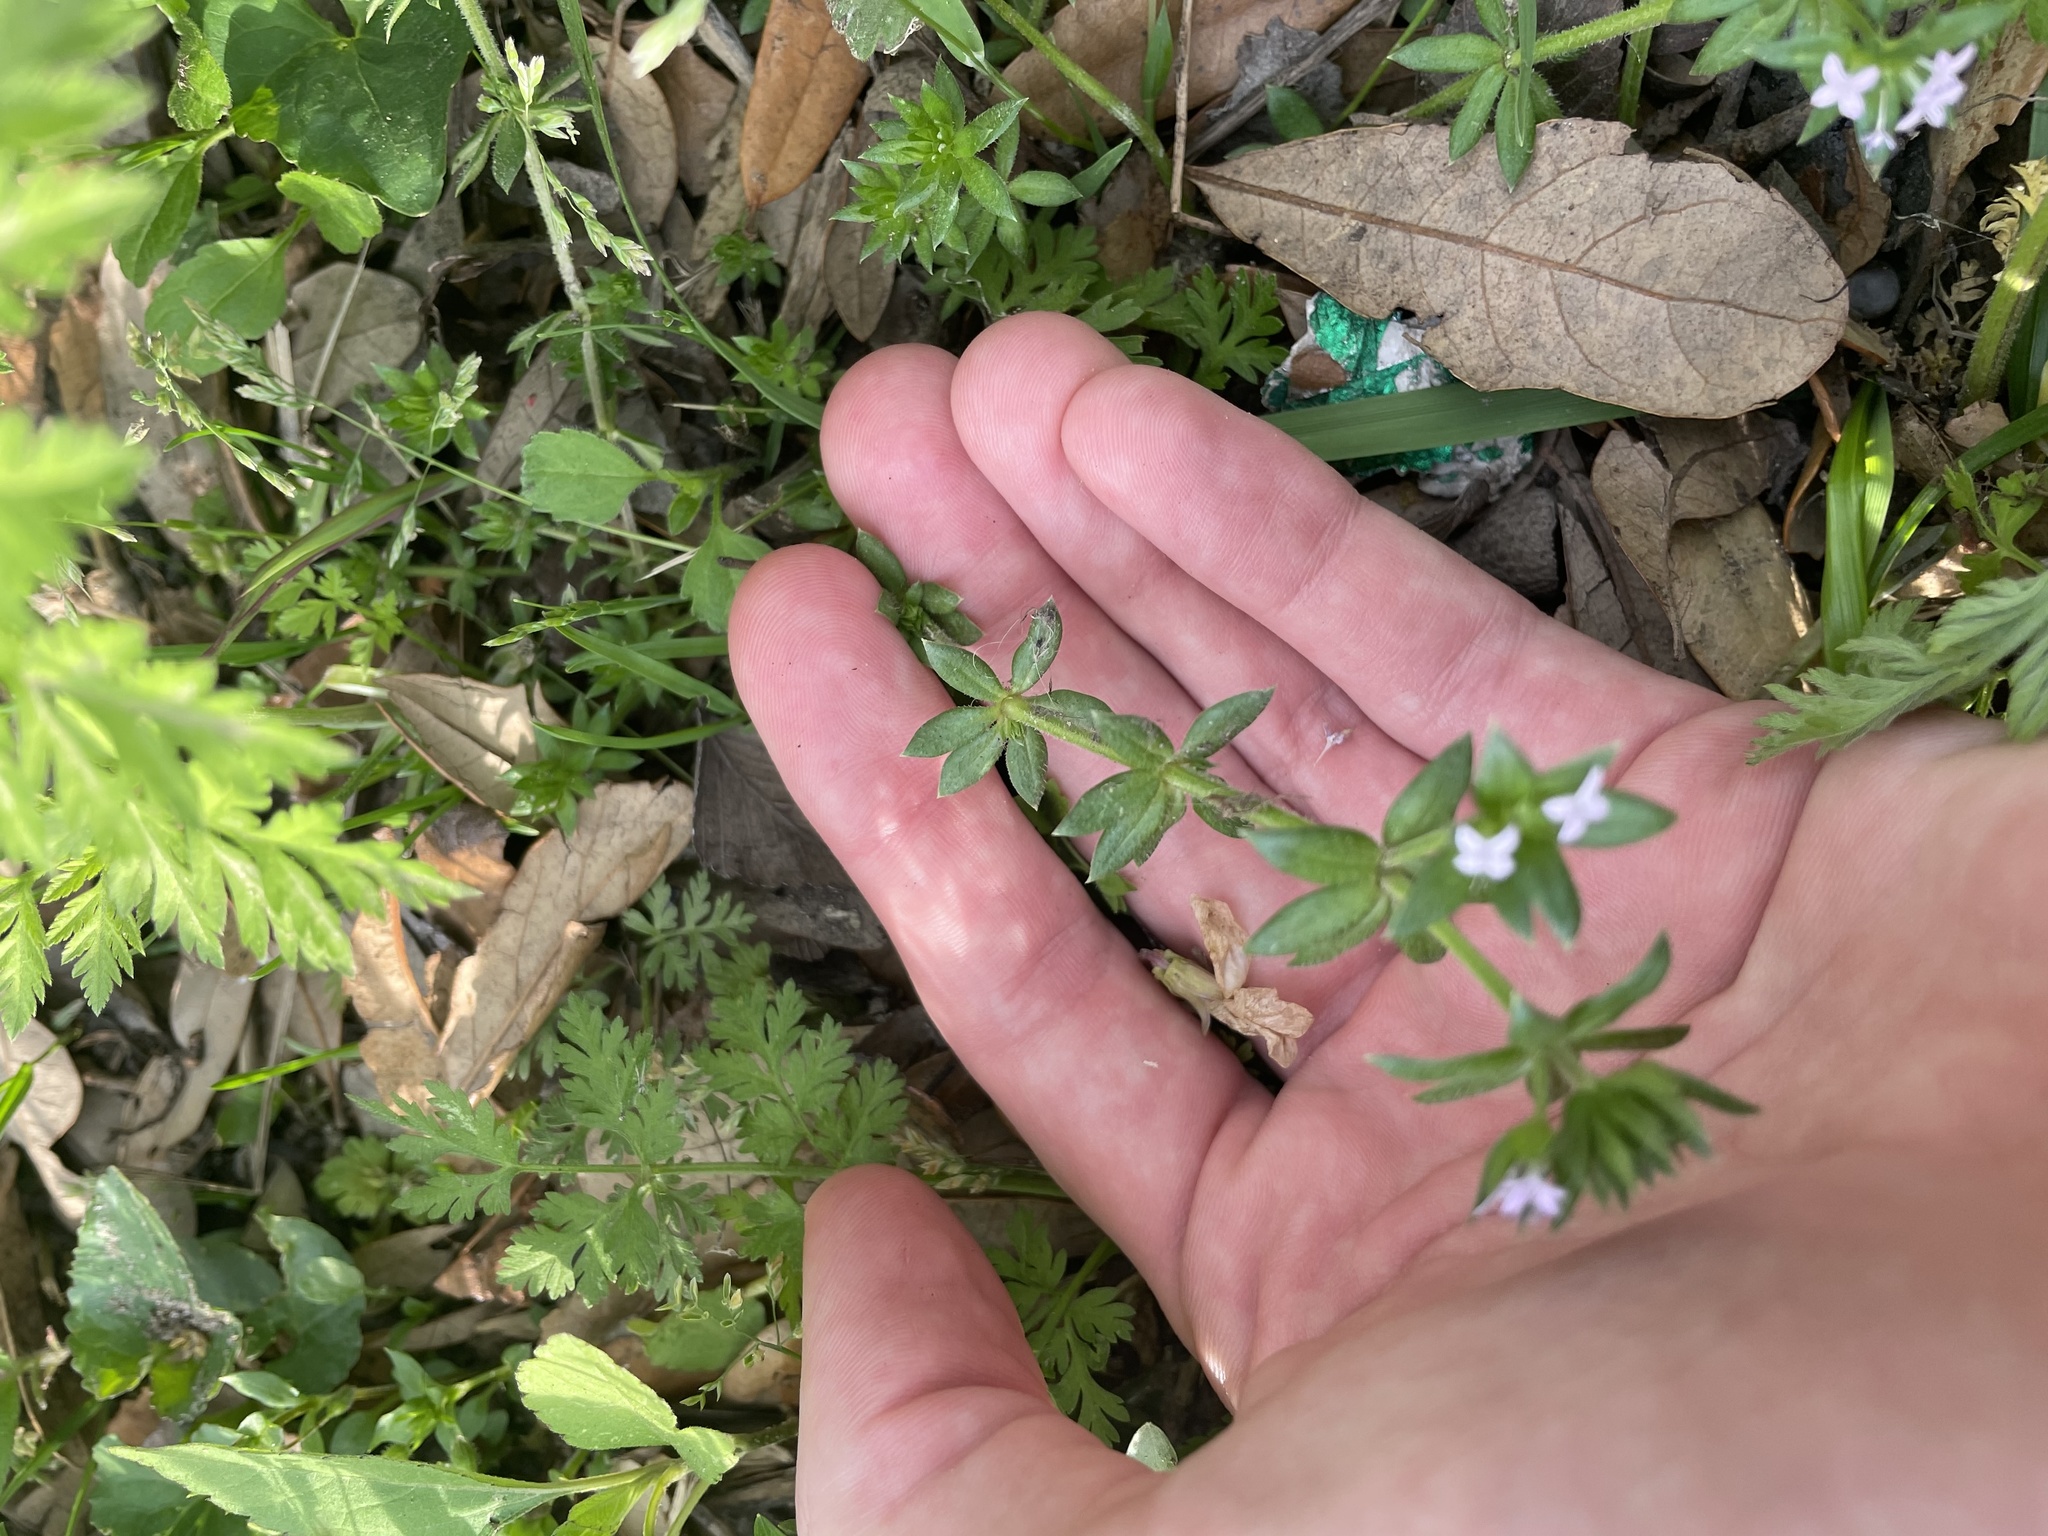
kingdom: Plantae
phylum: Tracheophyta
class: Magnoliopsida
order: Gentianales
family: Rubiaceae
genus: Sherardia
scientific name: Sherardia arvensis
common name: Field madder
